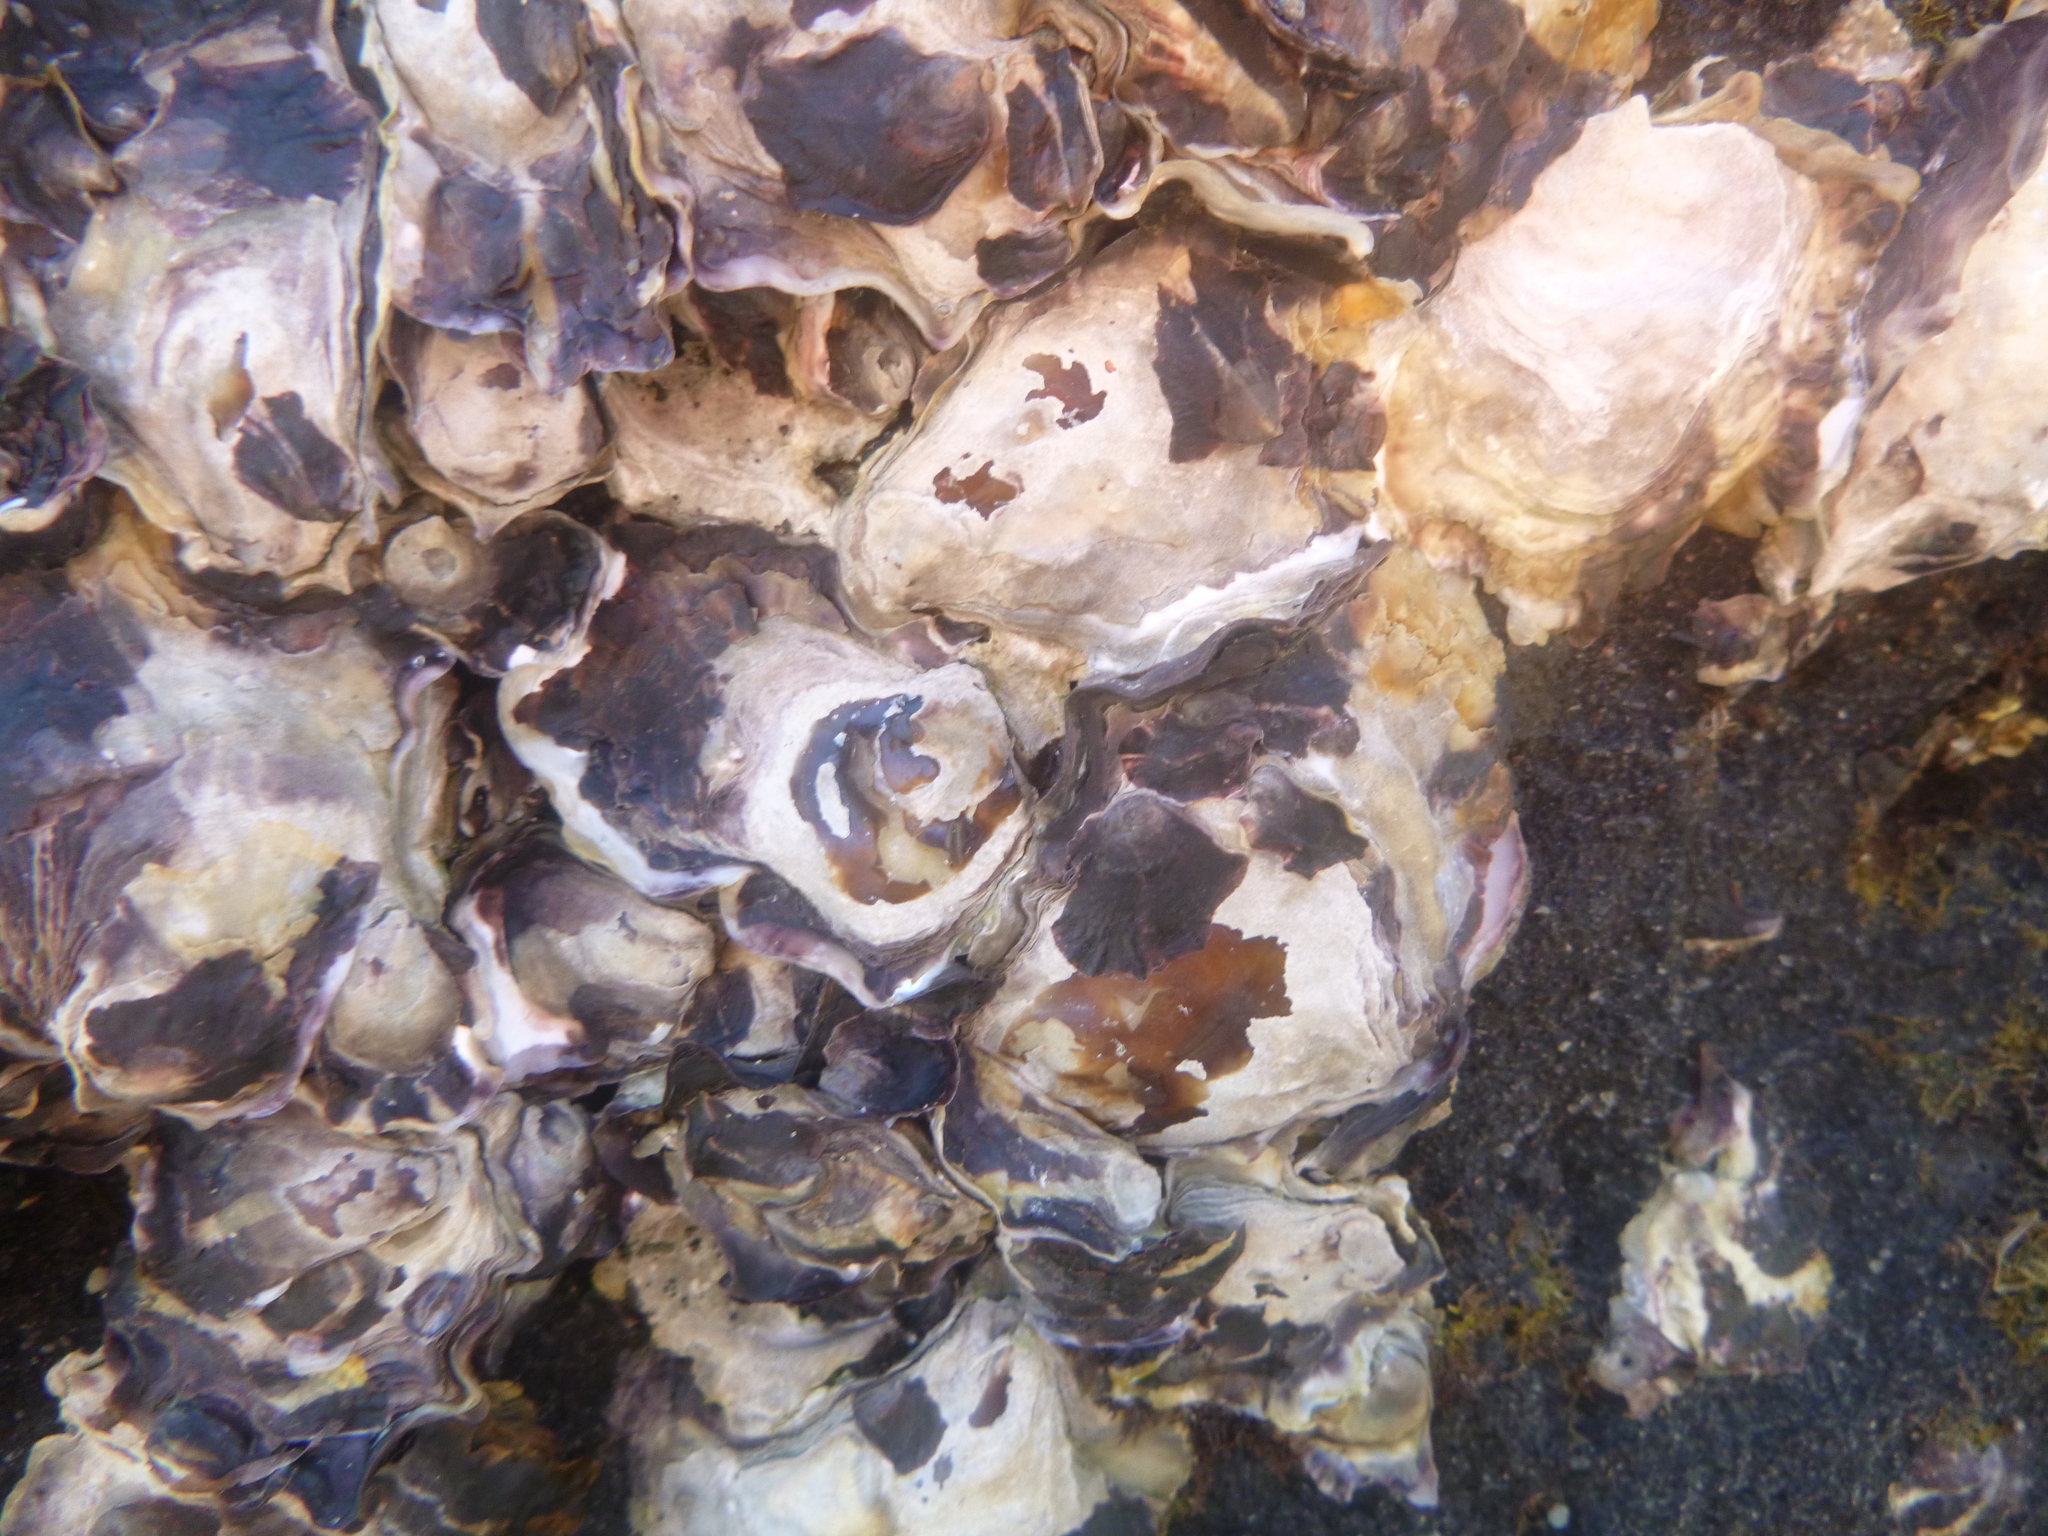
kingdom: Animalia
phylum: Mollusca
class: Bivalvia
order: Ostreida
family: Ostreidae
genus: Saccostrea
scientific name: Saccostrea glomerata
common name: Sydney cupped oyster
